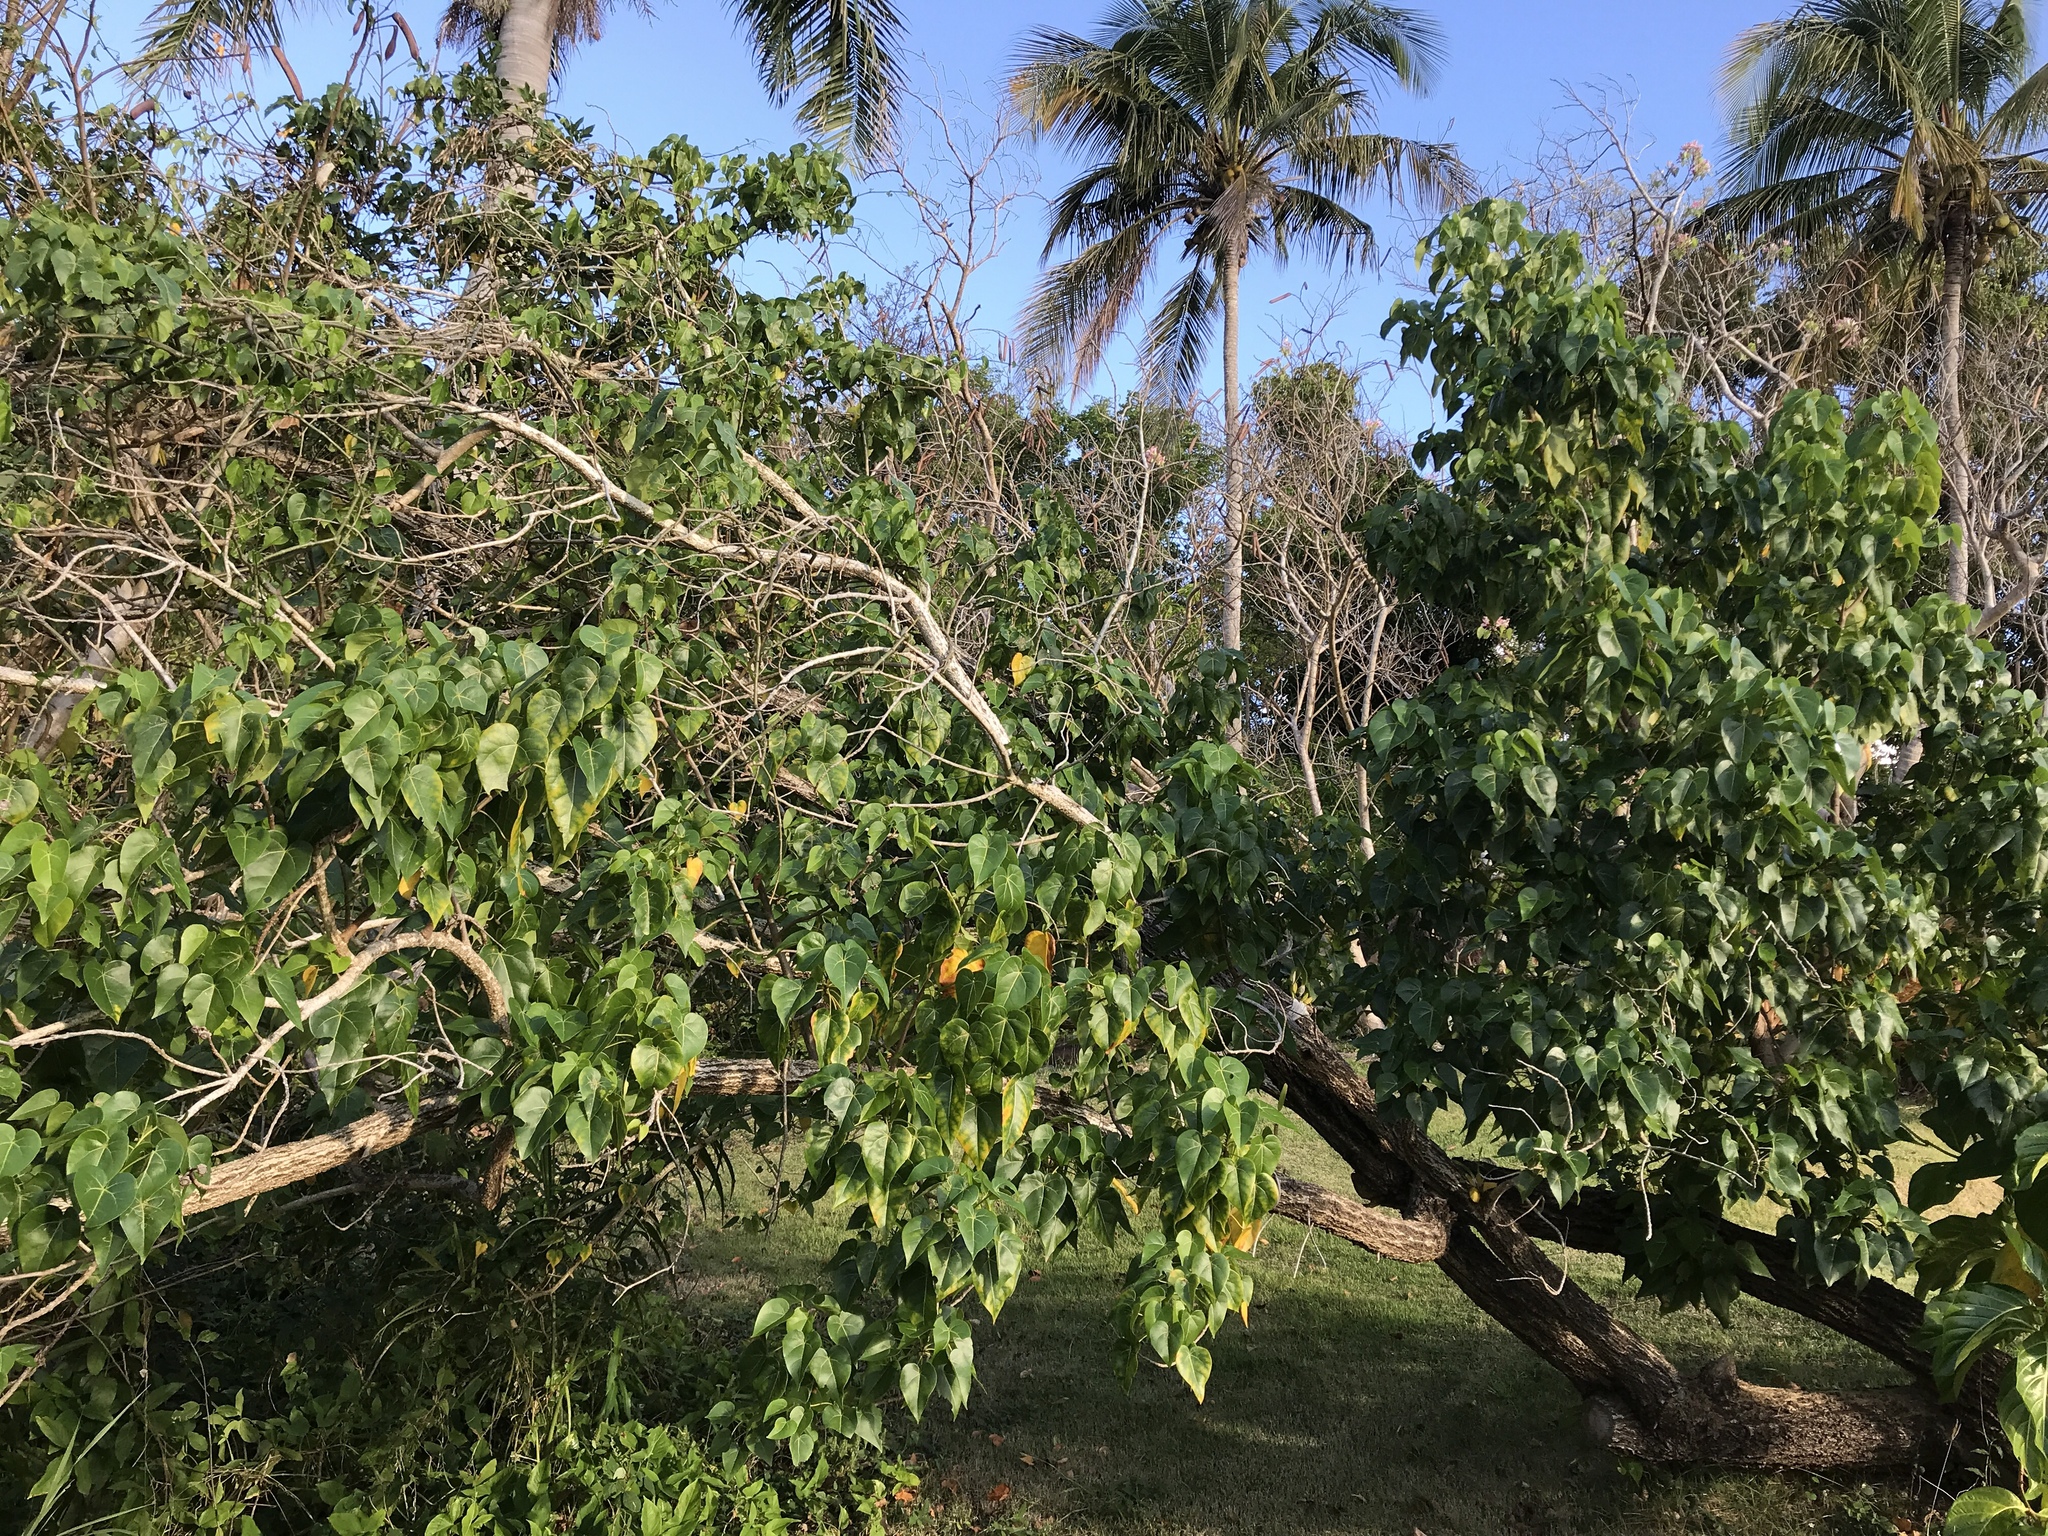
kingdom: Plantae
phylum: Tracheophyta
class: Magnoliopsida
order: Malvales
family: Malvaceae
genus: Thespesia
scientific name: Thespesia populnea
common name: Seaside mahoe
